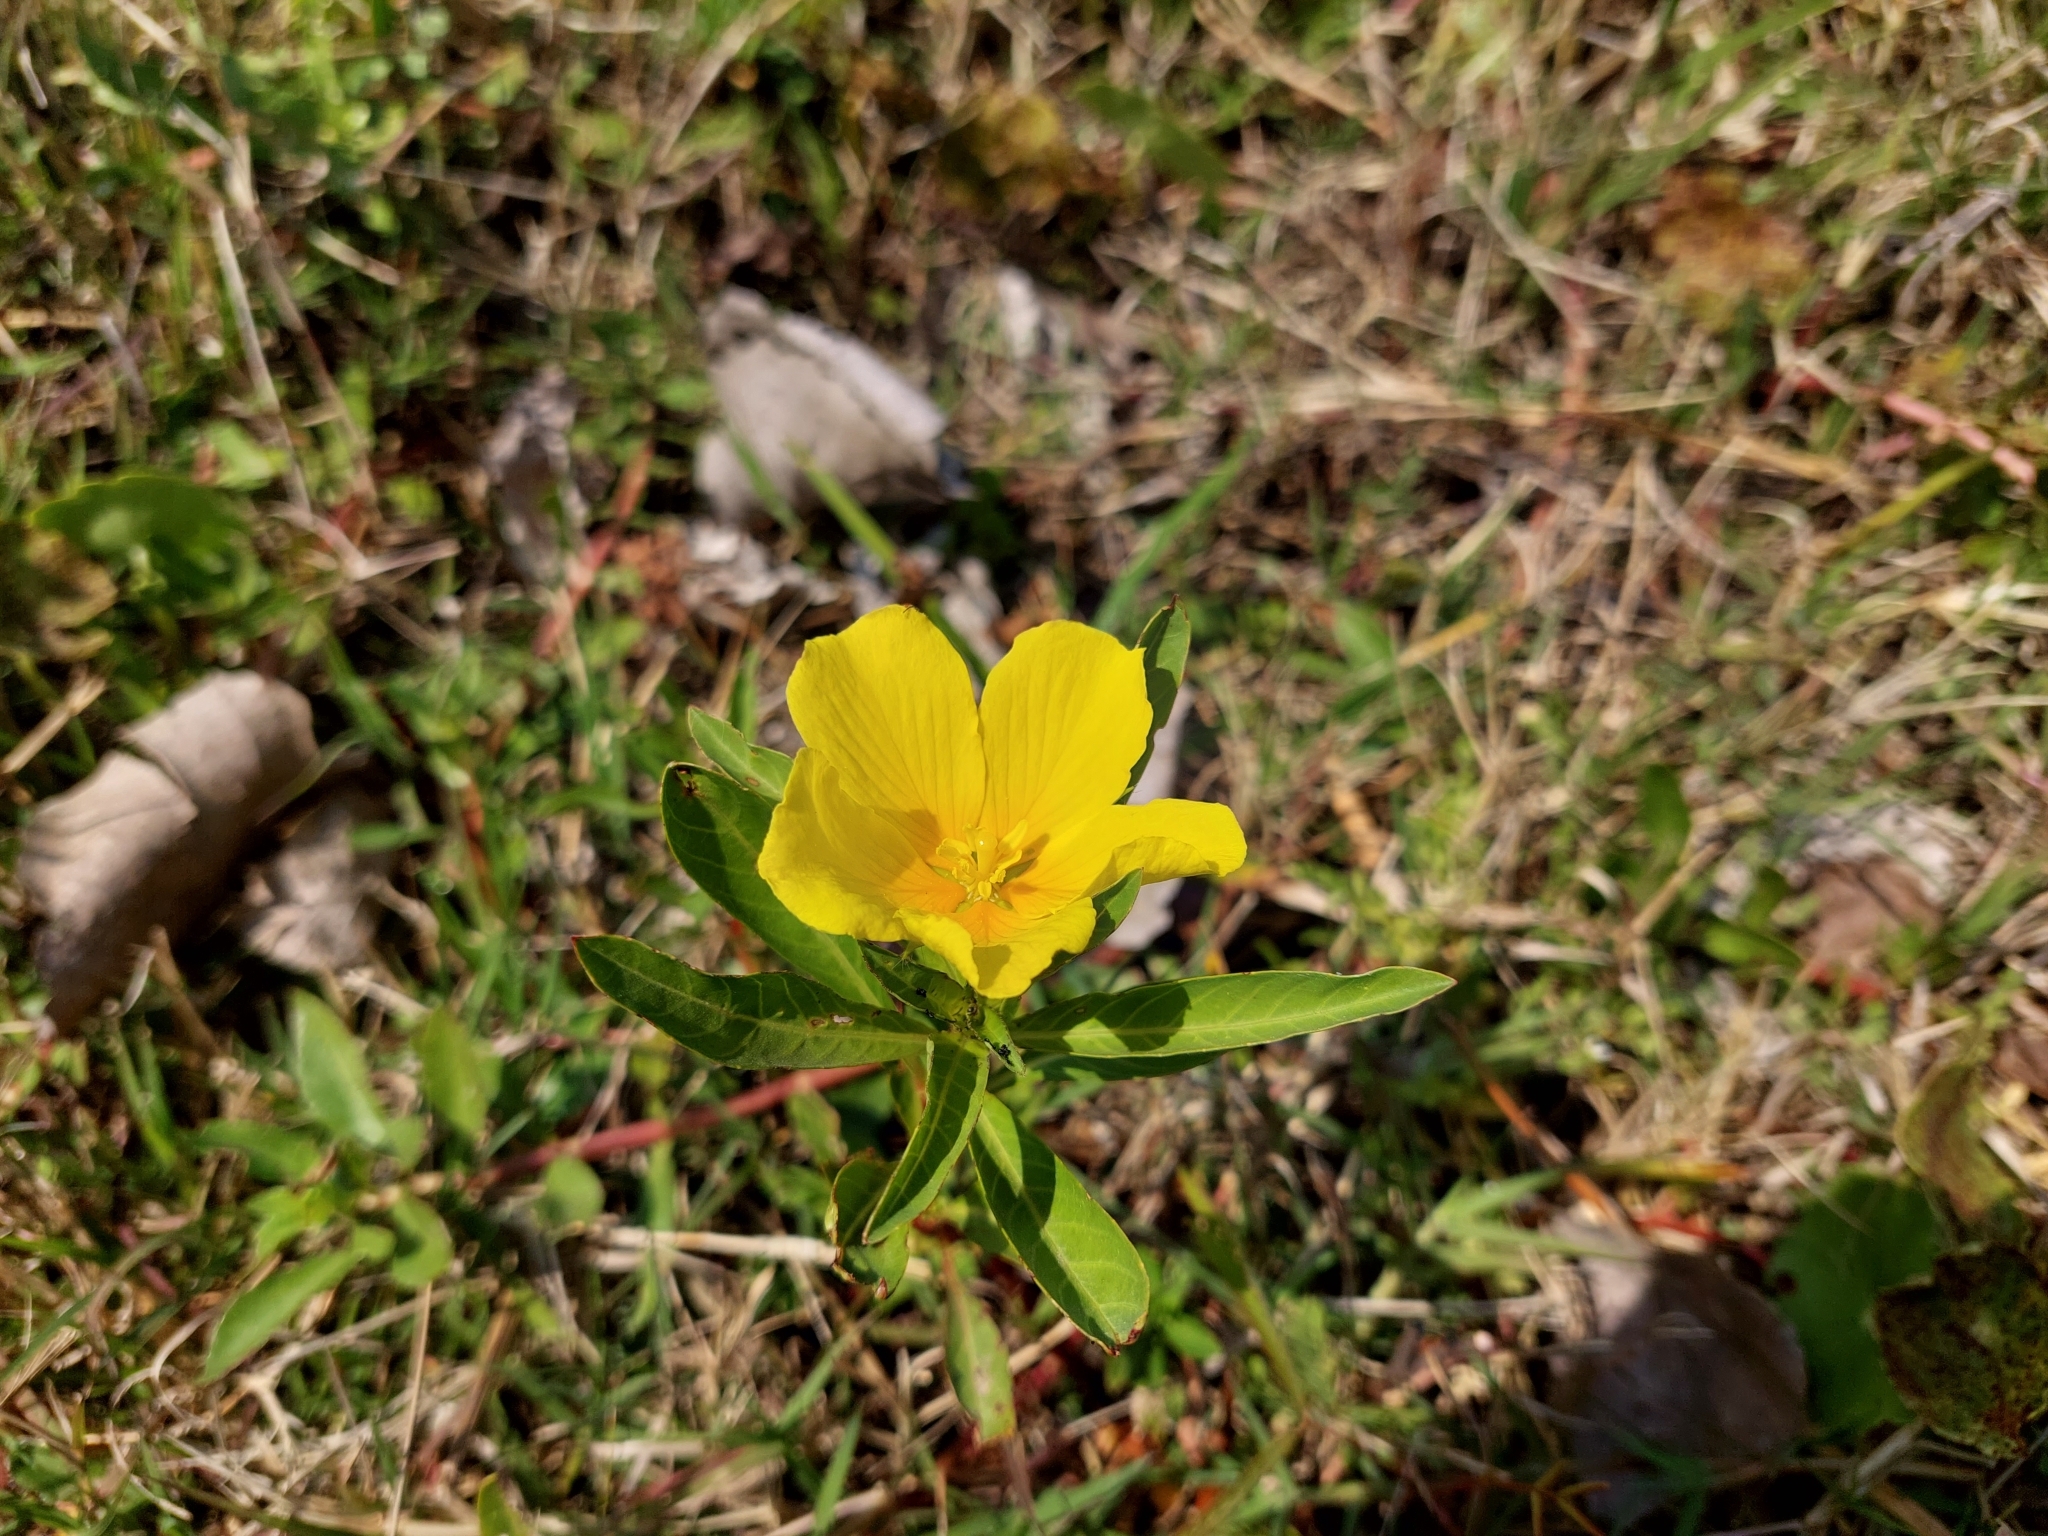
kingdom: Plantae
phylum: Tracheophyta
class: Magnoliopsida
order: Myrtales
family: Onagraceae
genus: Ludwigia
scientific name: Ludwigia peploides
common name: Floating primrose-willow
